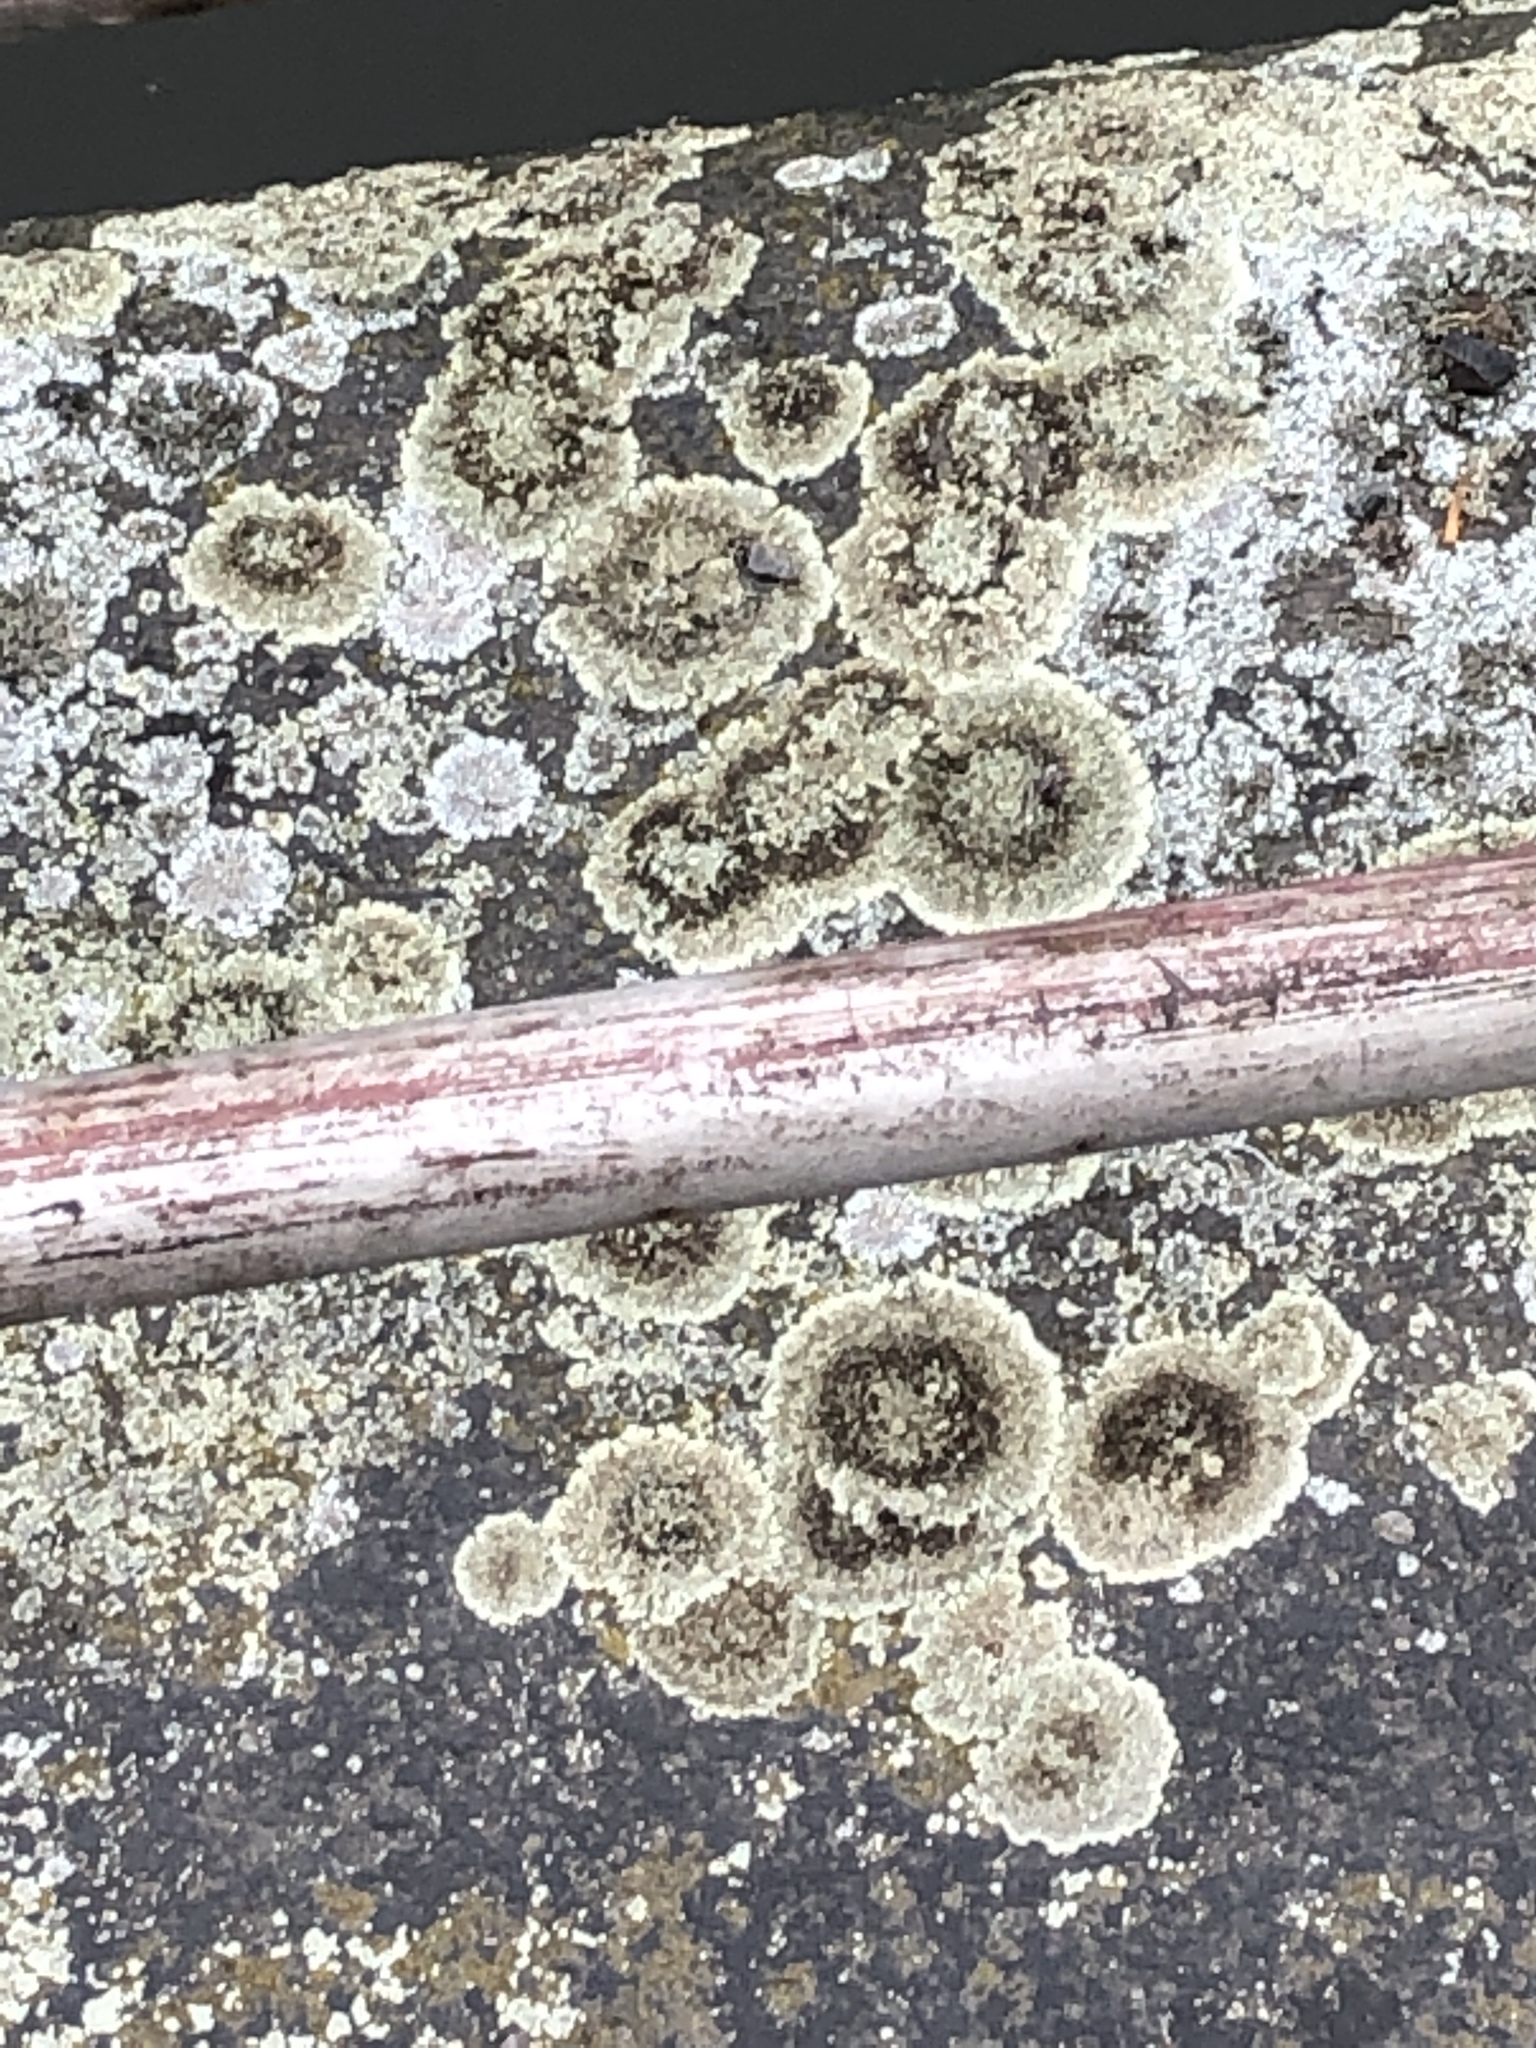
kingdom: Fungi
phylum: Ascomycota
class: Lecanoromycetes
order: Lecanorales
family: Lecanoraceae
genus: Protoparmeliopsis
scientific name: Protoparmeliopsis muralis
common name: Stonewall rim lichen
